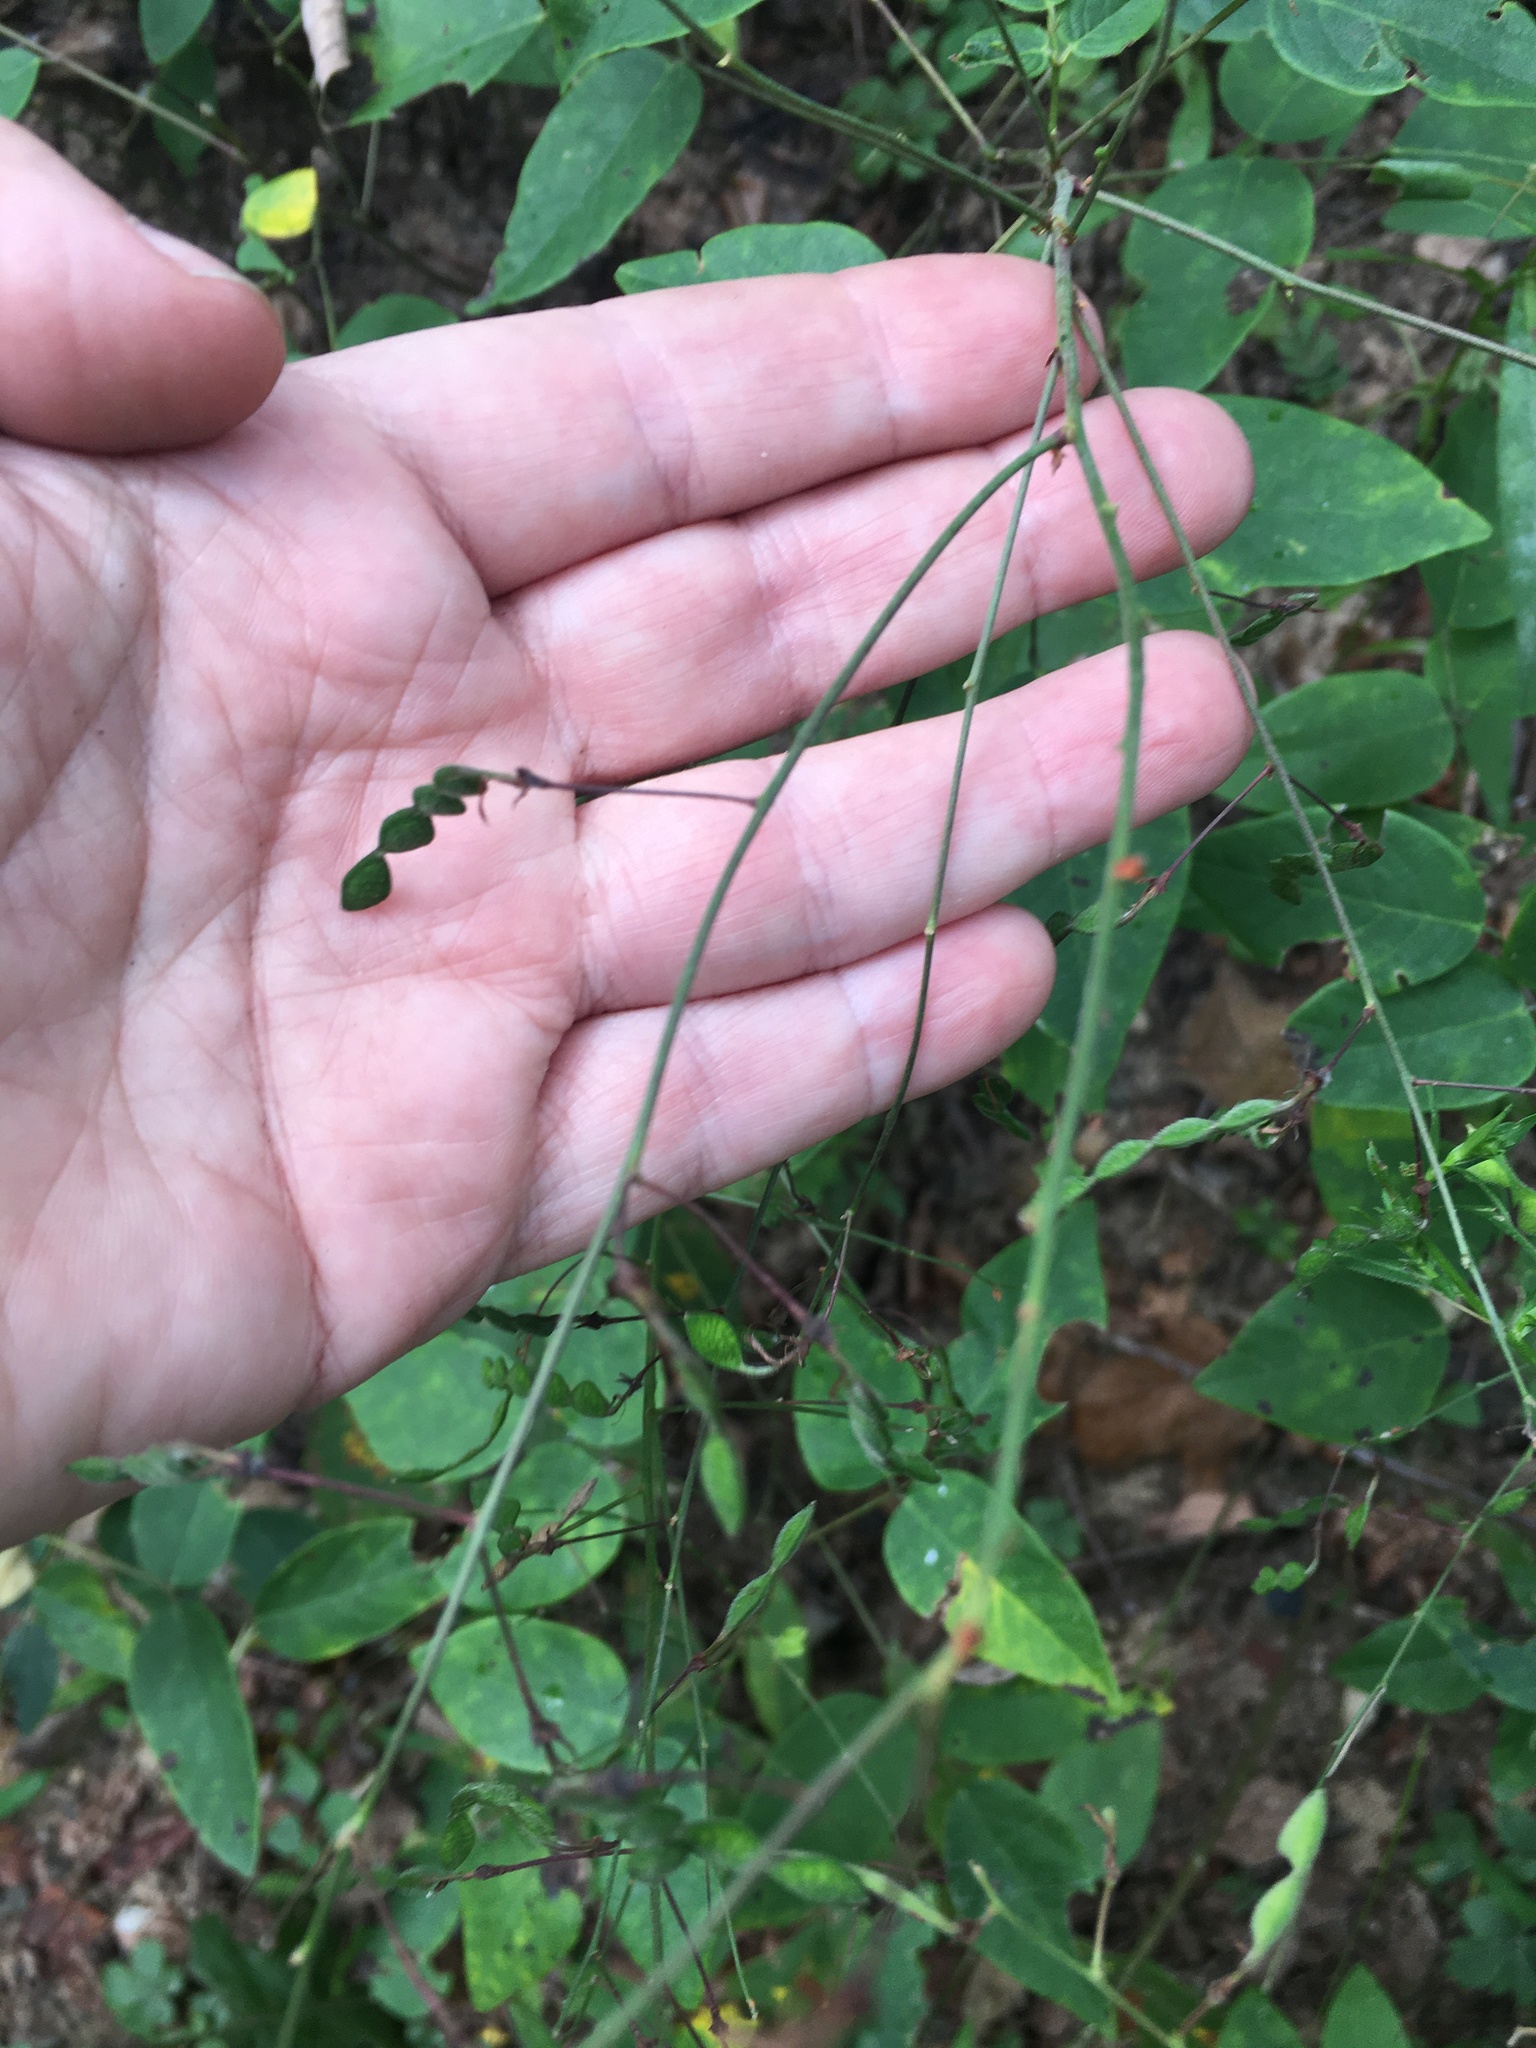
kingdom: Plantae
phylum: Tracheophyta
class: Magnoliopsida
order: Fabales
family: Fabaceae
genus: Desmodium
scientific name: Desmodium laevigatum
